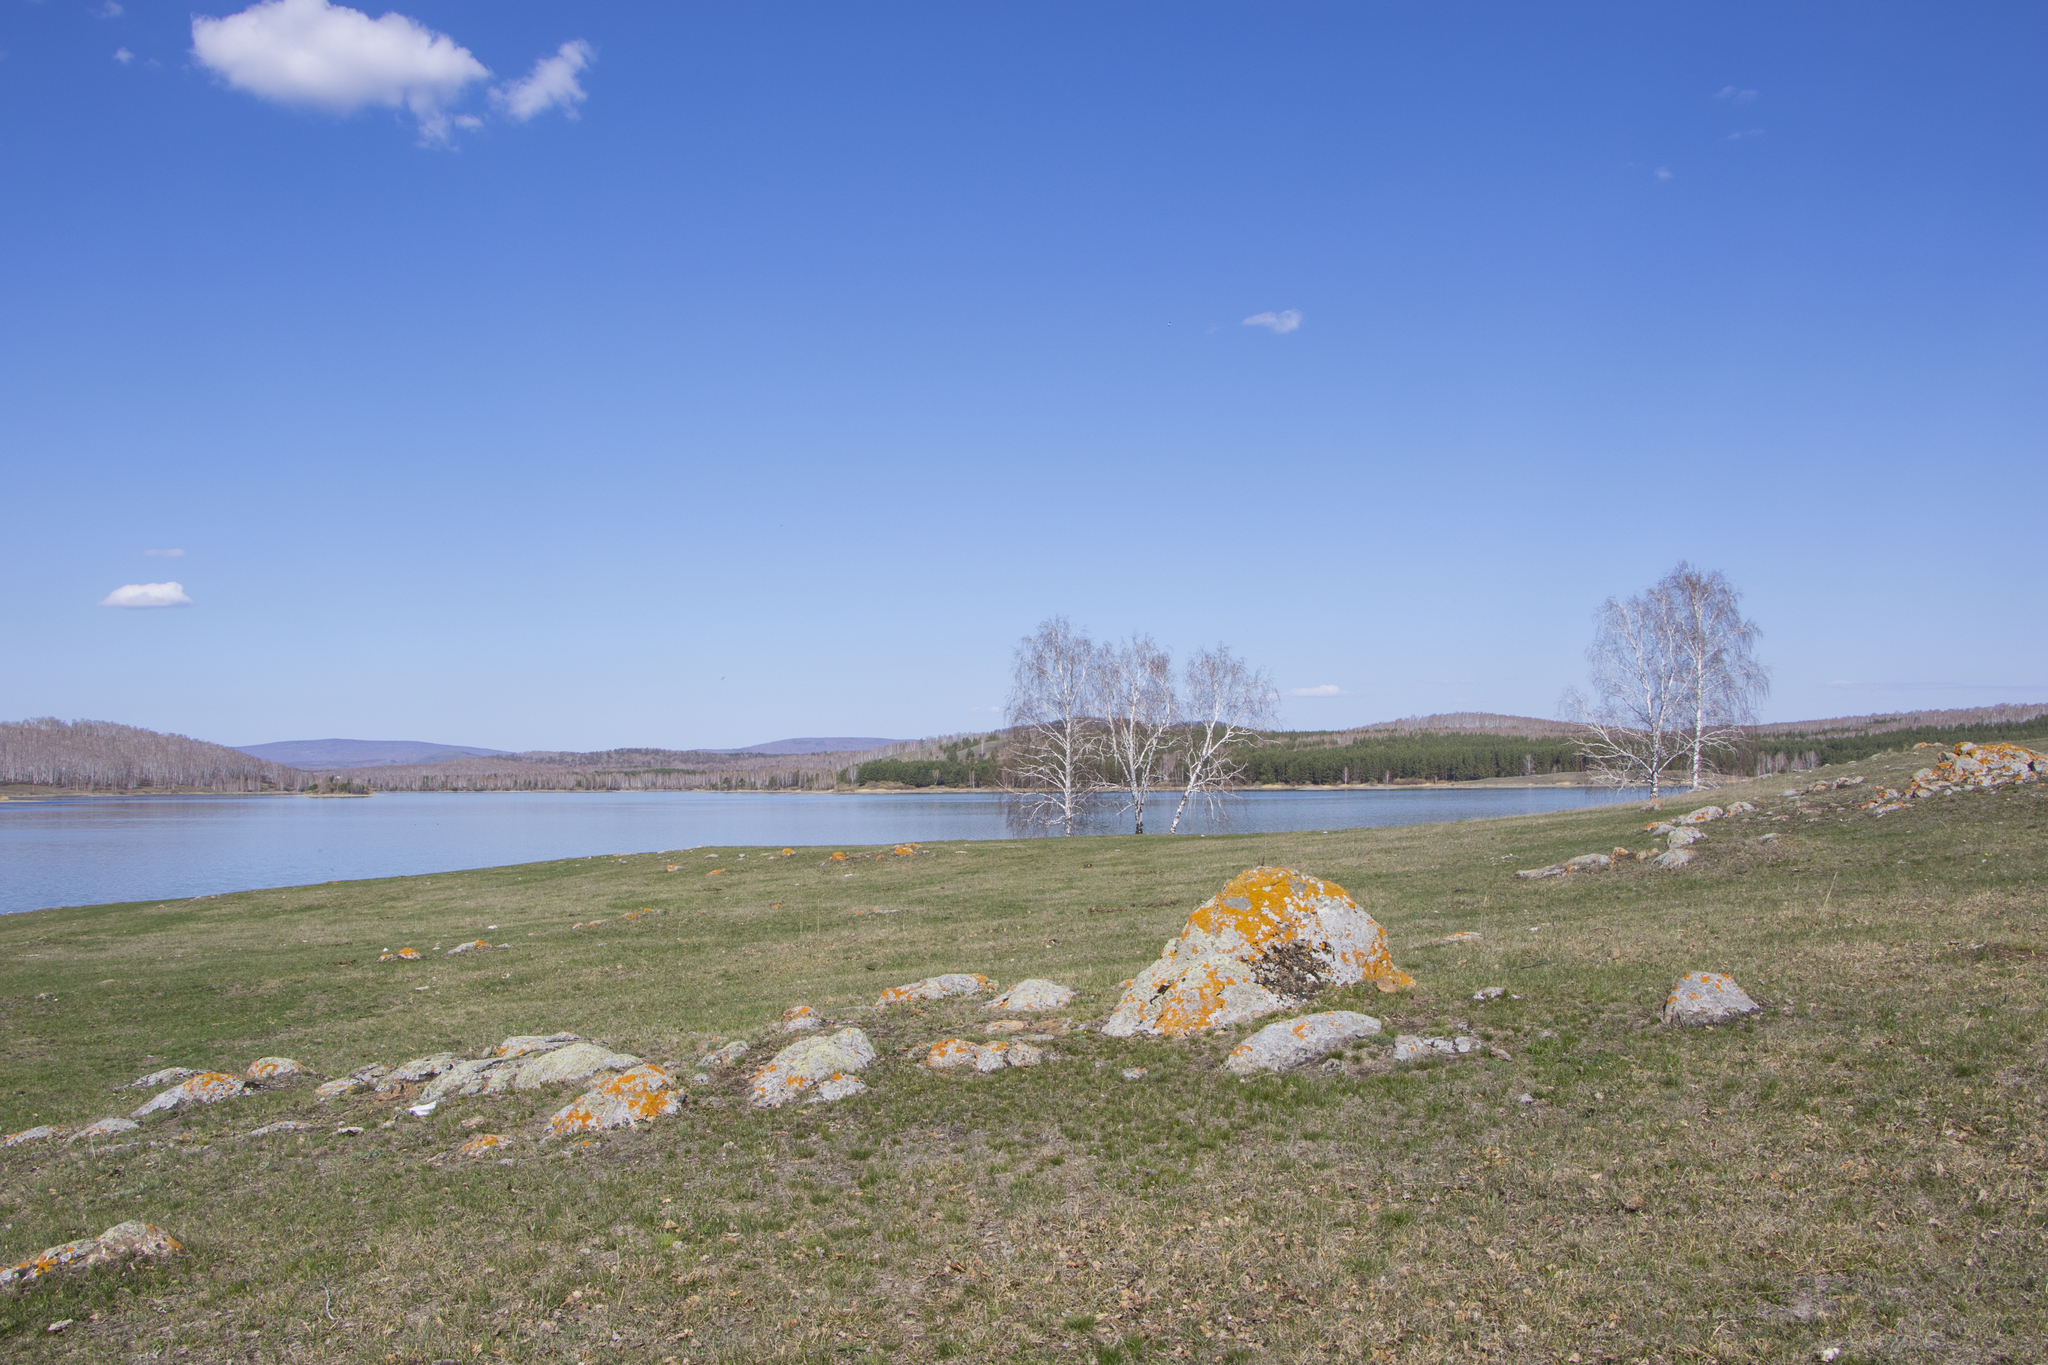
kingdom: Plantae
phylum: Tracheophyta
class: Magnoliopsida
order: Fagales
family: Betulaceae
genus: Betula
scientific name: Betula pendula
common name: Silver birch
